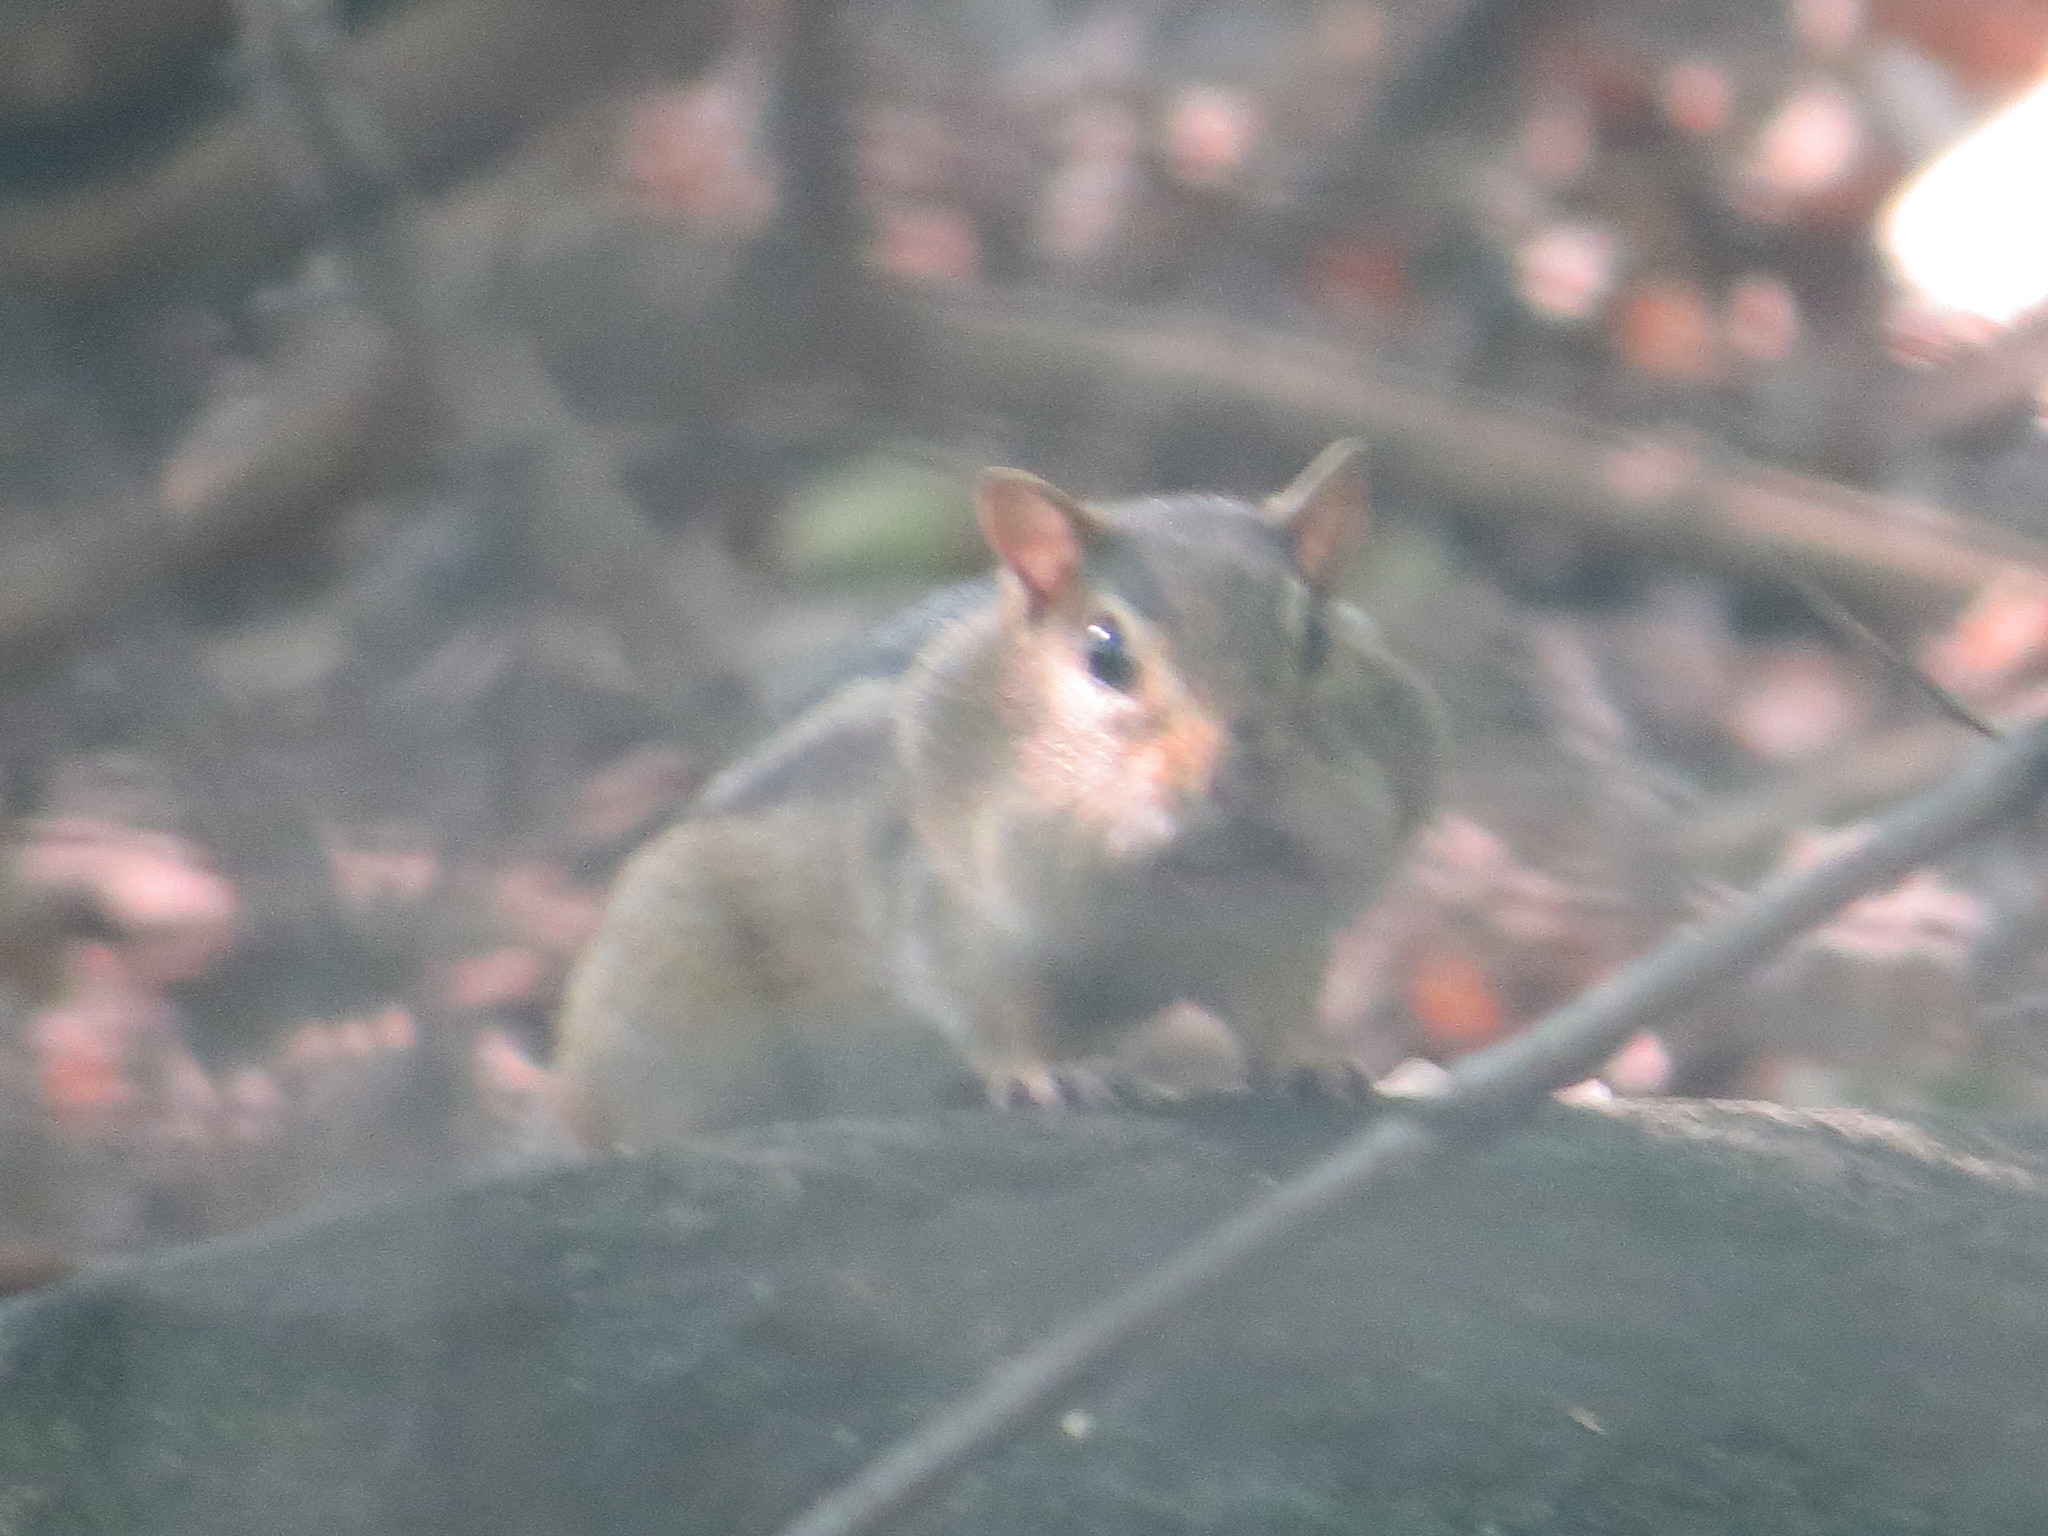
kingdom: Animalia
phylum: Chordata
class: Mammalia
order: Rodentia
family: Sciuridae
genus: Tamias
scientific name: Tamias striatus
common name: Eastern chipmunk
